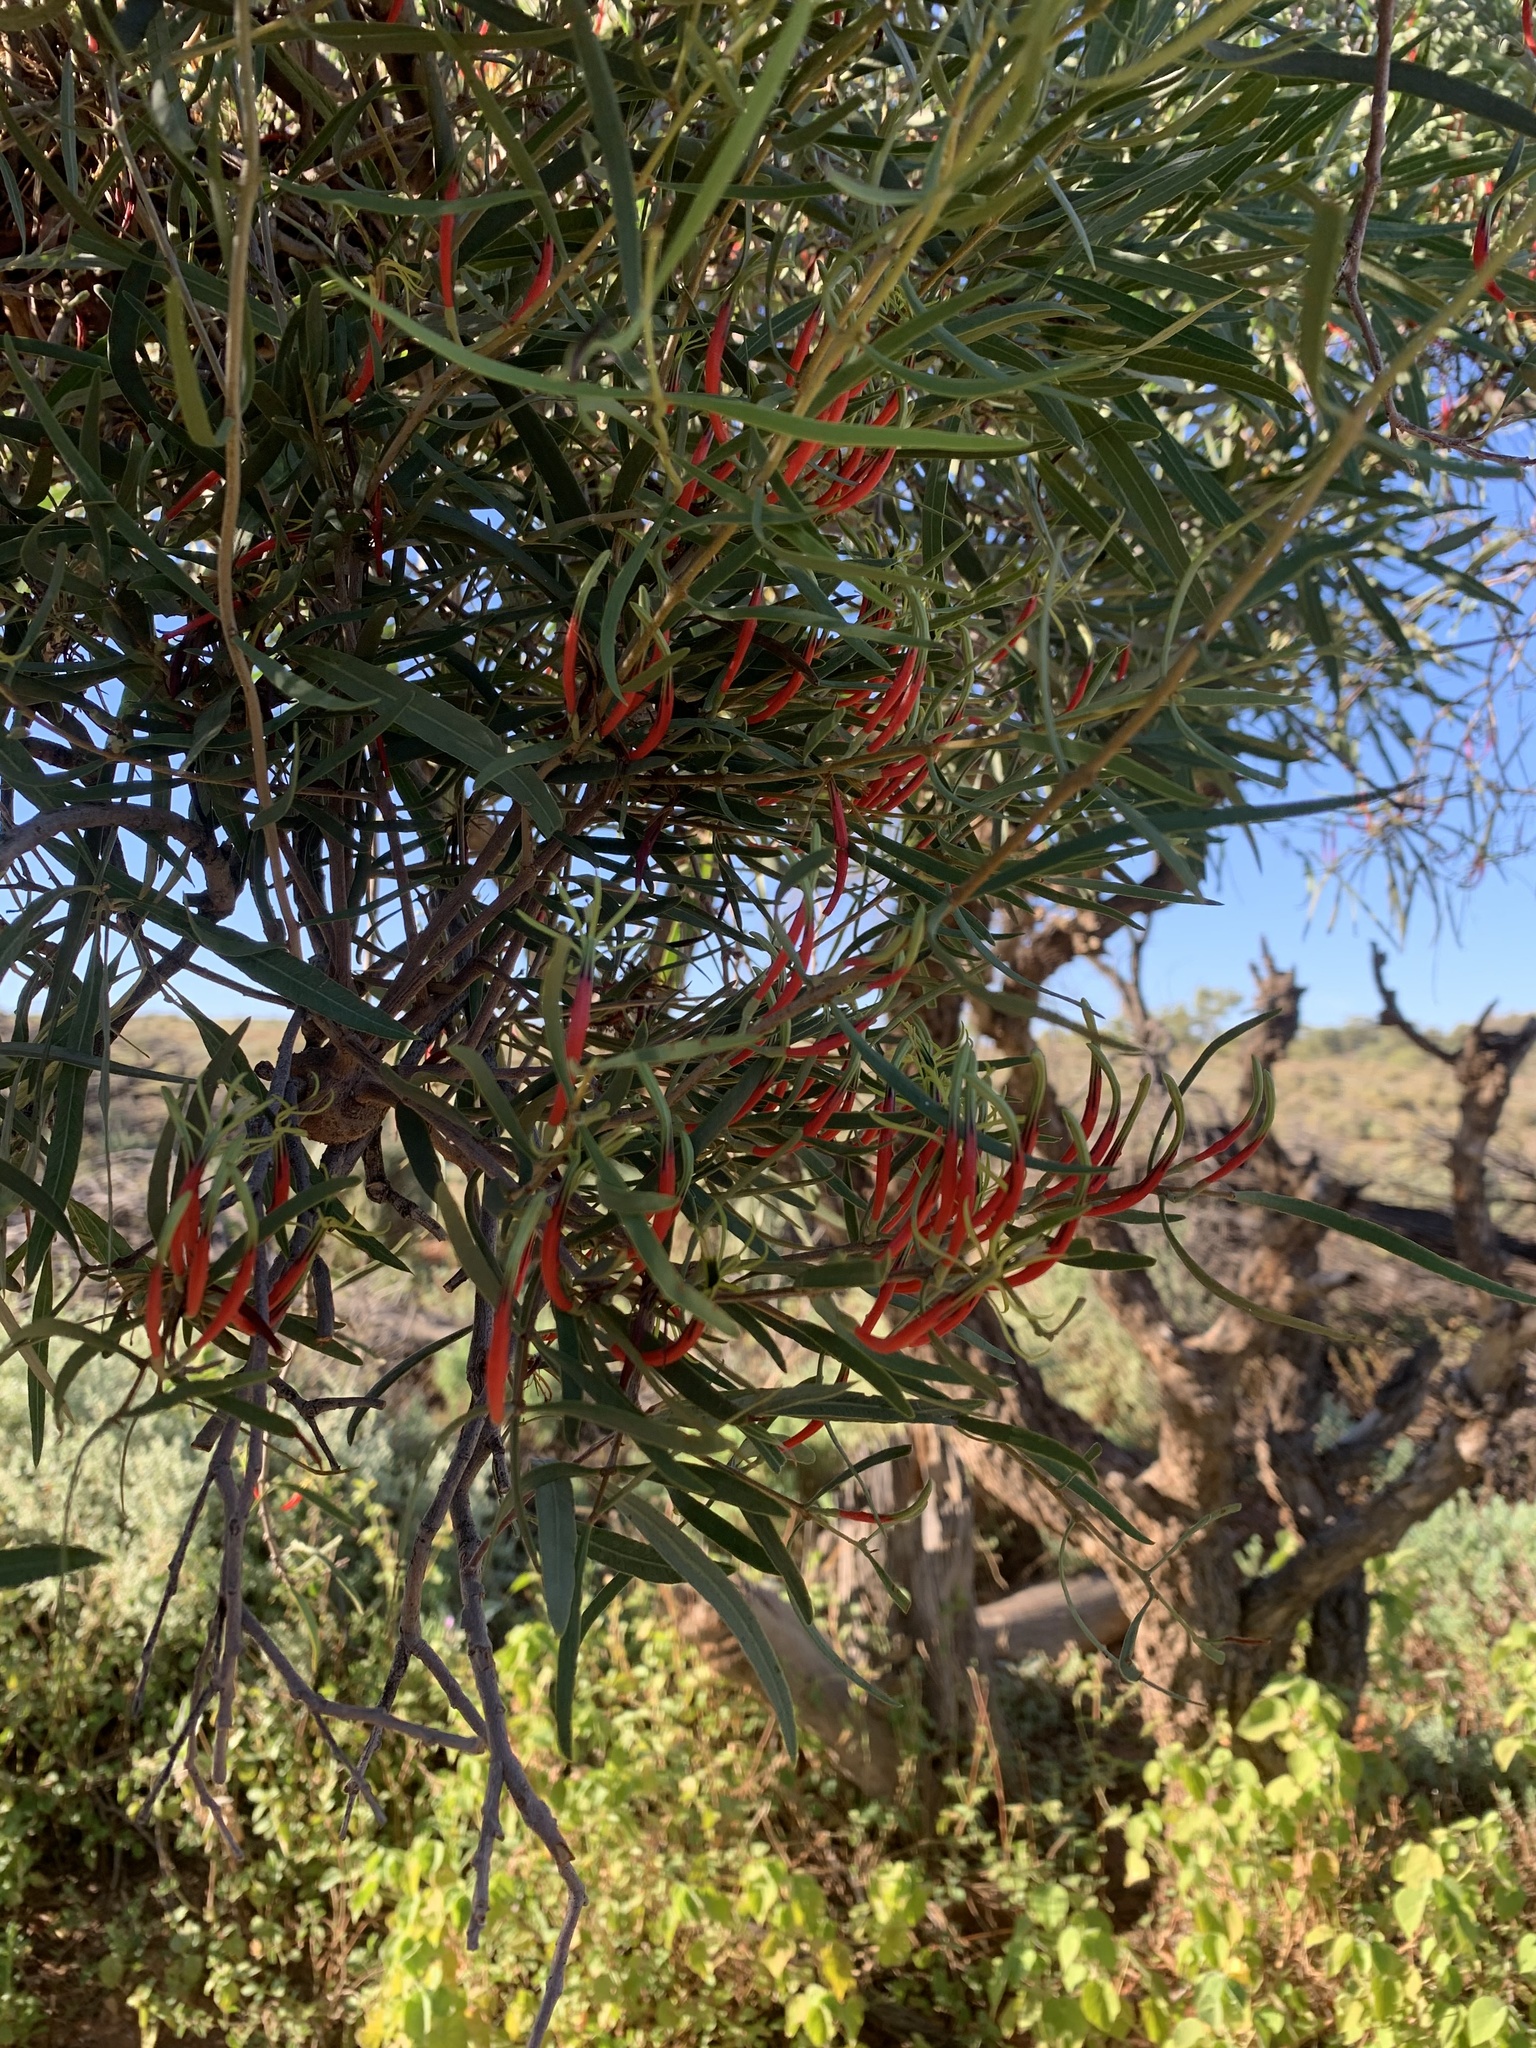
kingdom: Plantae
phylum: Tracheophyta
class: Magnoliopsida
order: Santalales
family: Loranthaceae
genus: Lysiana
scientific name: Lysiana exocarpi
